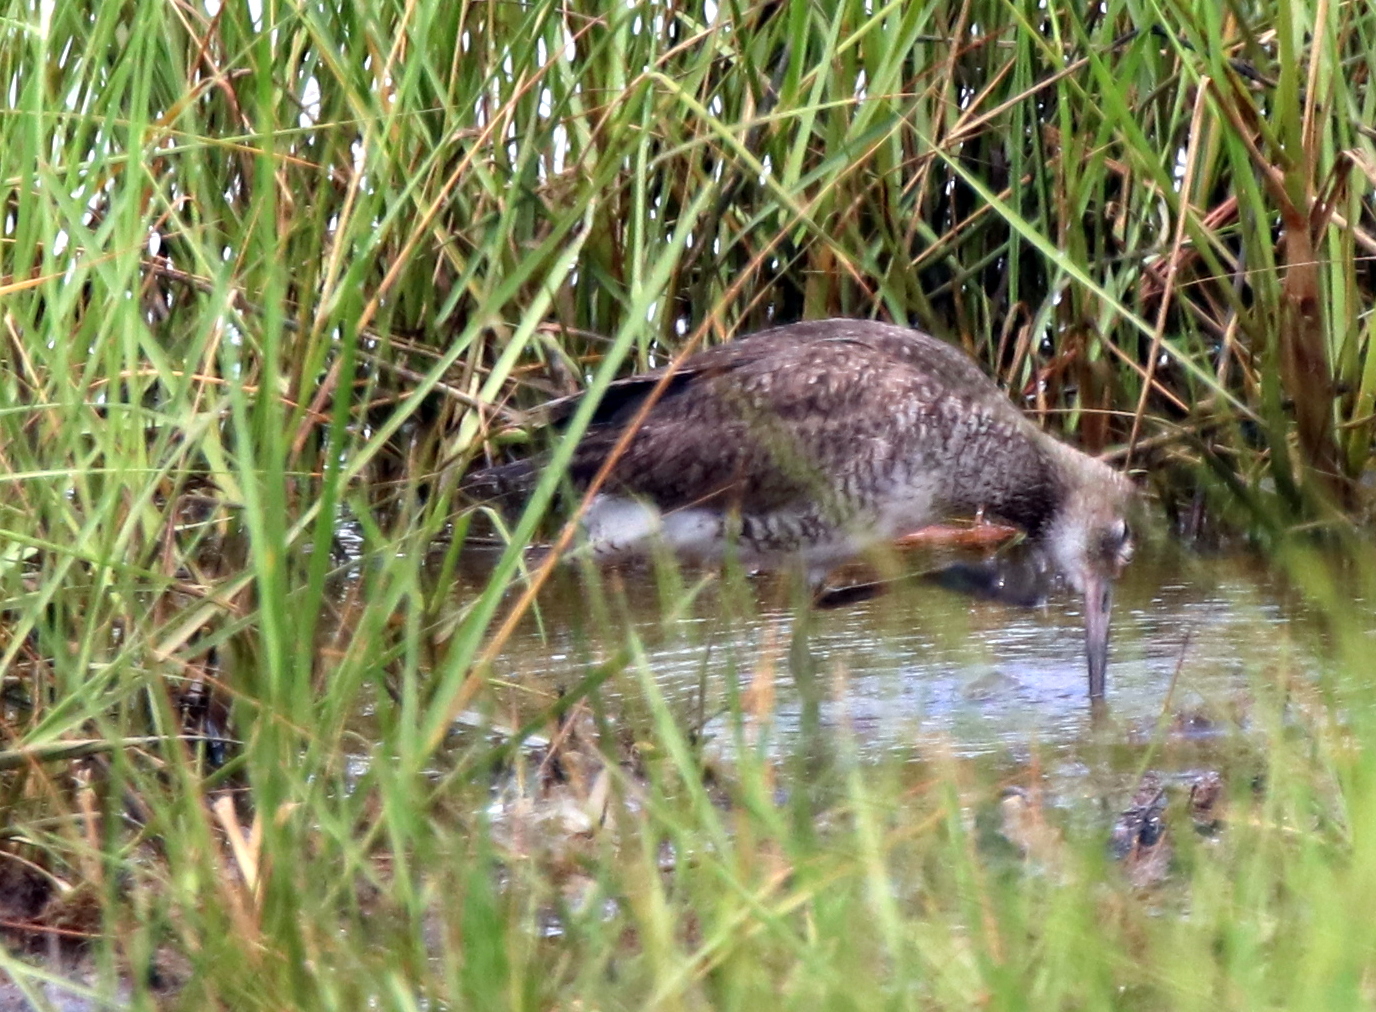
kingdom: Animalia
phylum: Chordata
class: Aves
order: Charadriiformes
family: Scolopacidae
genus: Tringa
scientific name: Tringa semipalmata
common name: Willet
